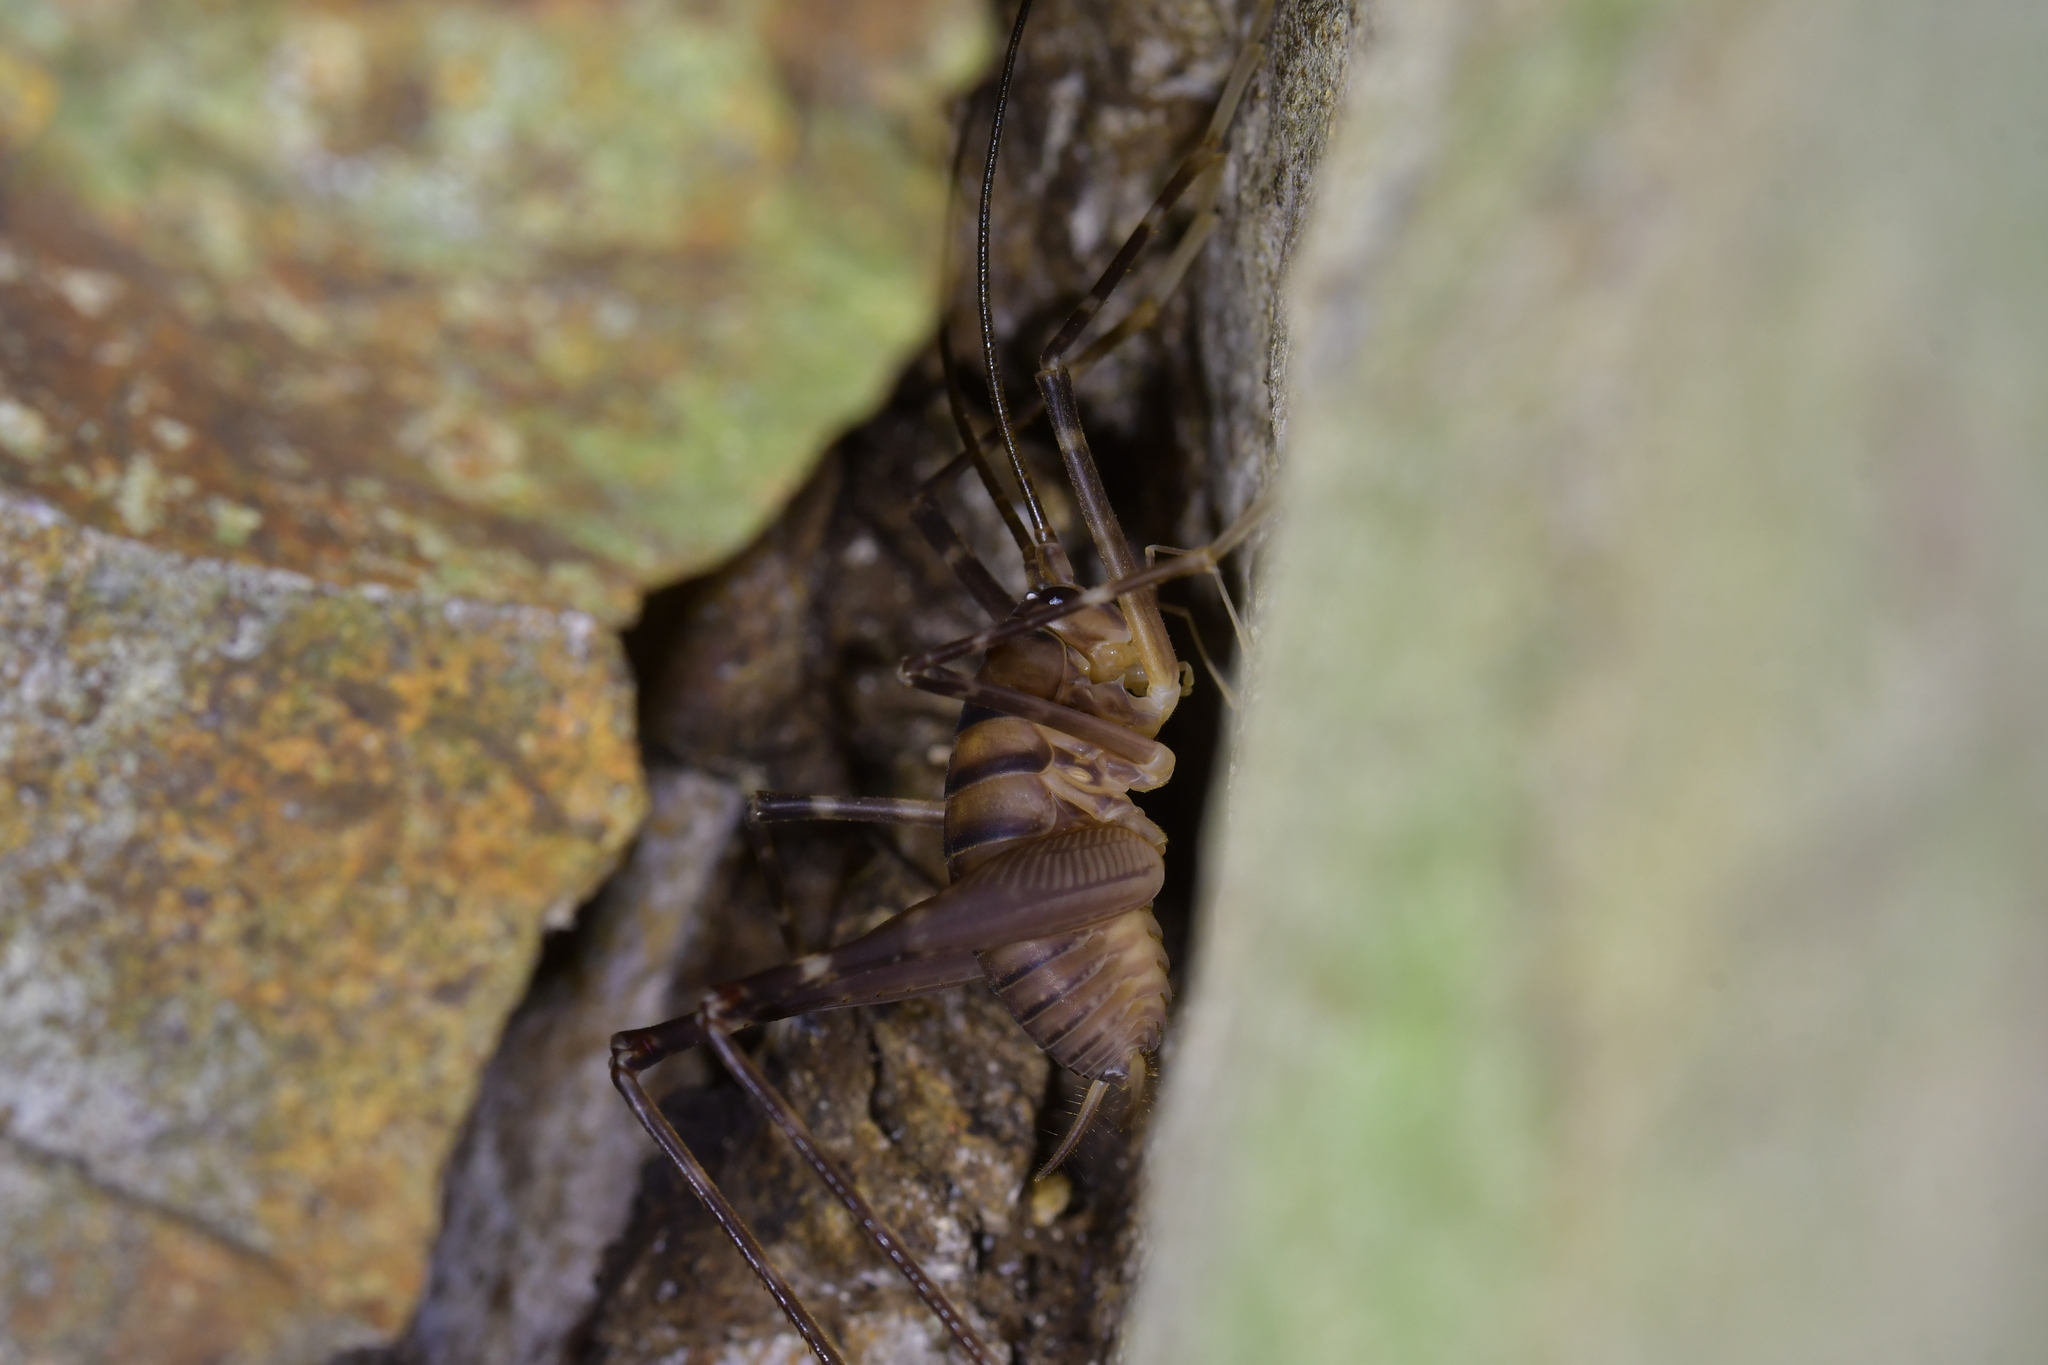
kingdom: Animalia
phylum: Arthropoda
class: Insecta
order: Orthoptera
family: Rhaphidophoridae
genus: Pachyrhamma
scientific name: Pachyrhamma edwardsii
